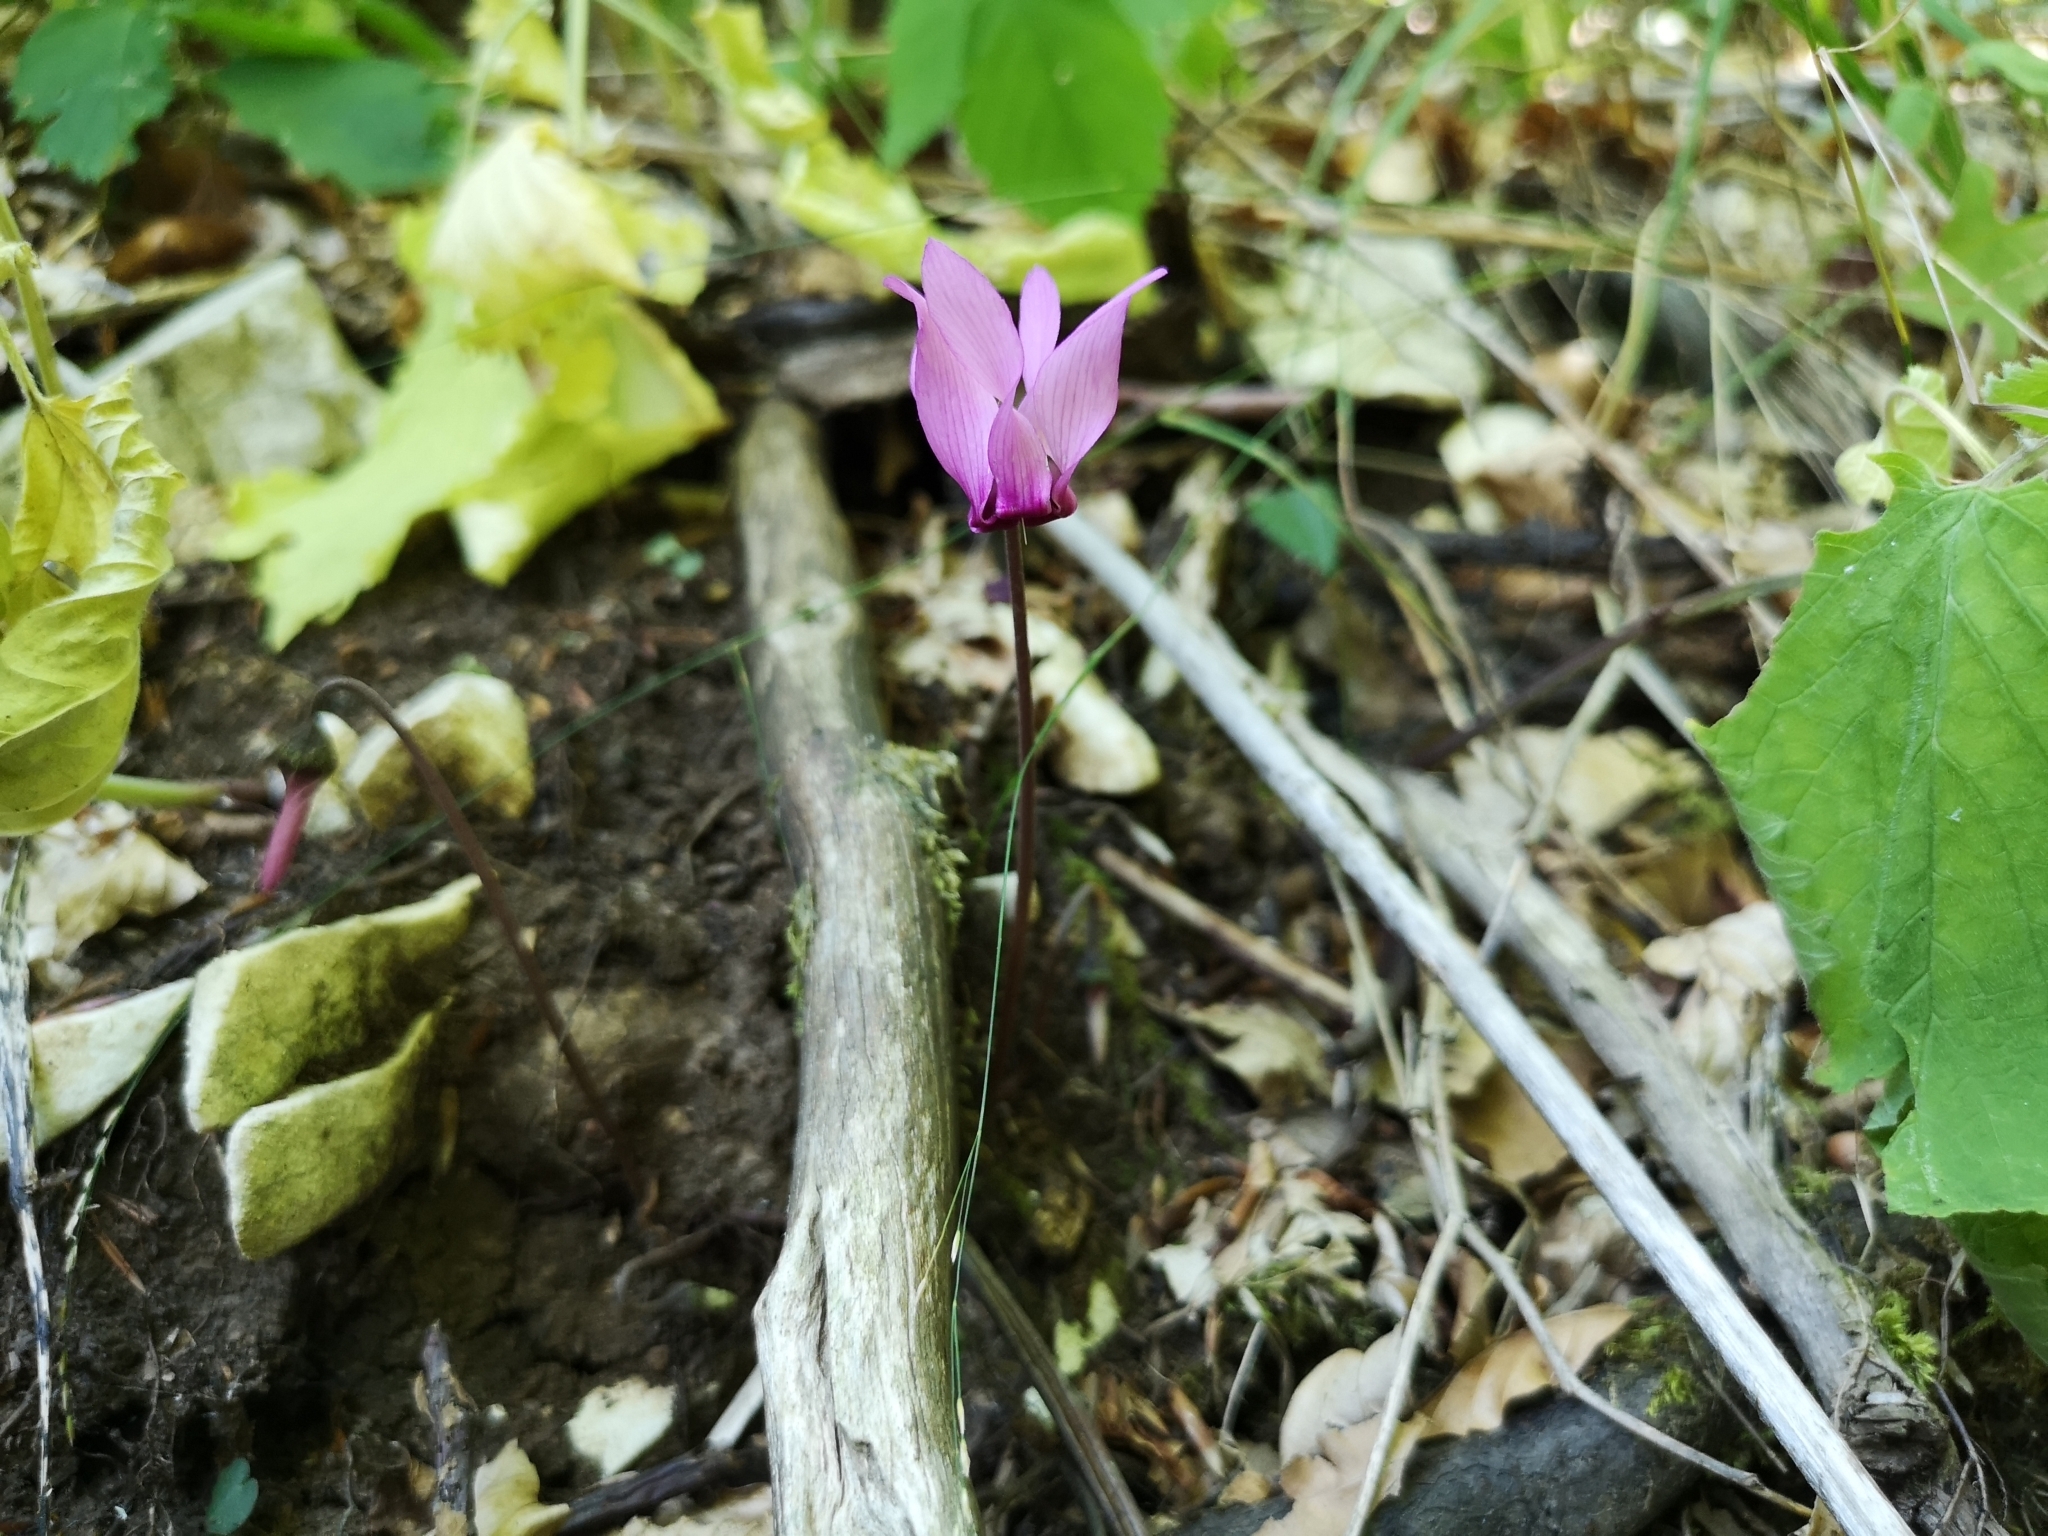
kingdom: Plantae
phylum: Tracheophyta
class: Magnoliopsida
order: Ericales
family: Primulaceae
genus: Cyclamen
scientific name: Cyclamen purpurascens
